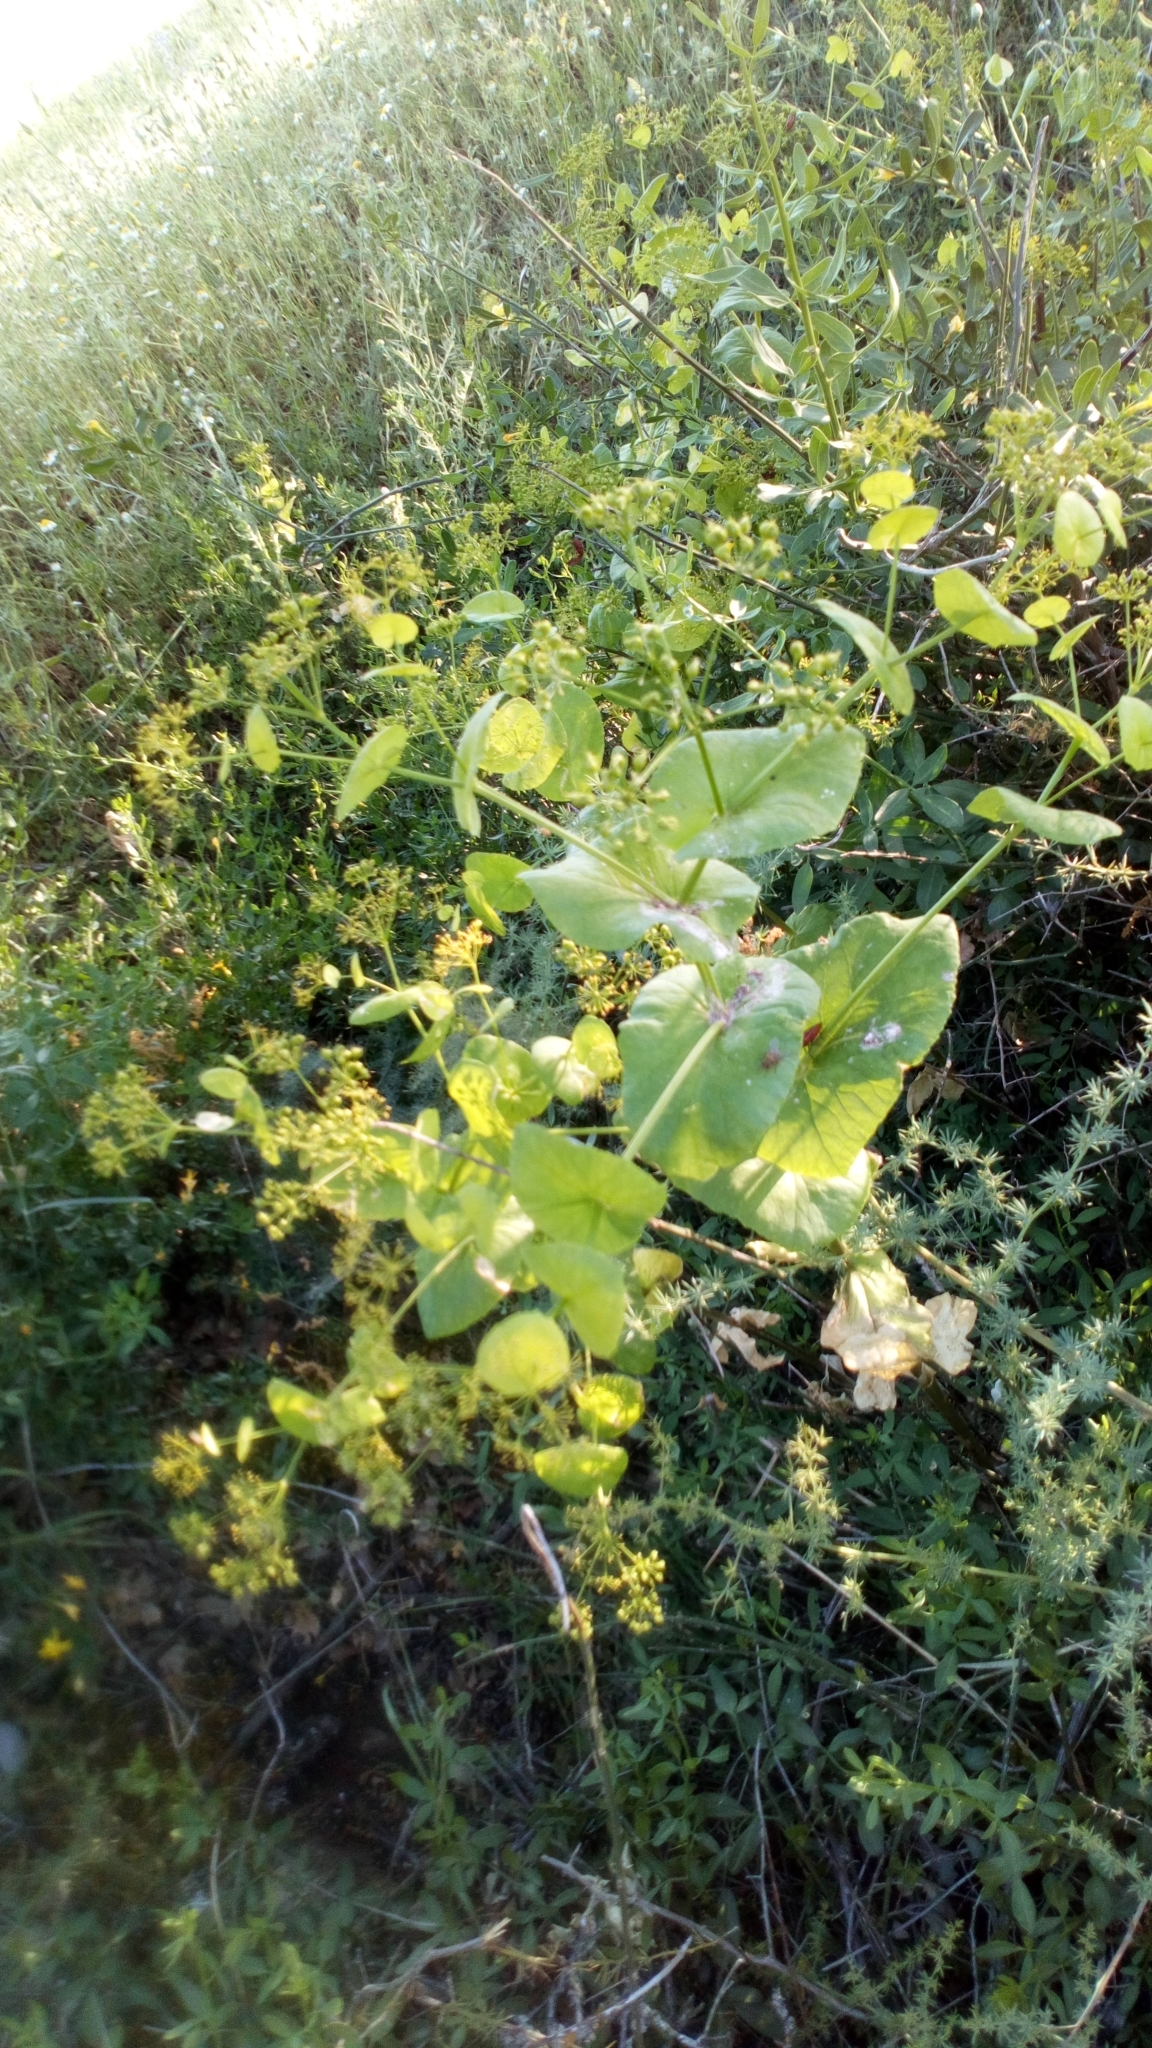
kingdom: Plantae
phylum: Tracheophyta
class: Magnoliopsida
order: Apiales
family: Apiaceae
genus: Smyrnium
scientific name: Smyrnium perfoliatum
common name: Perfoliate alexanders
